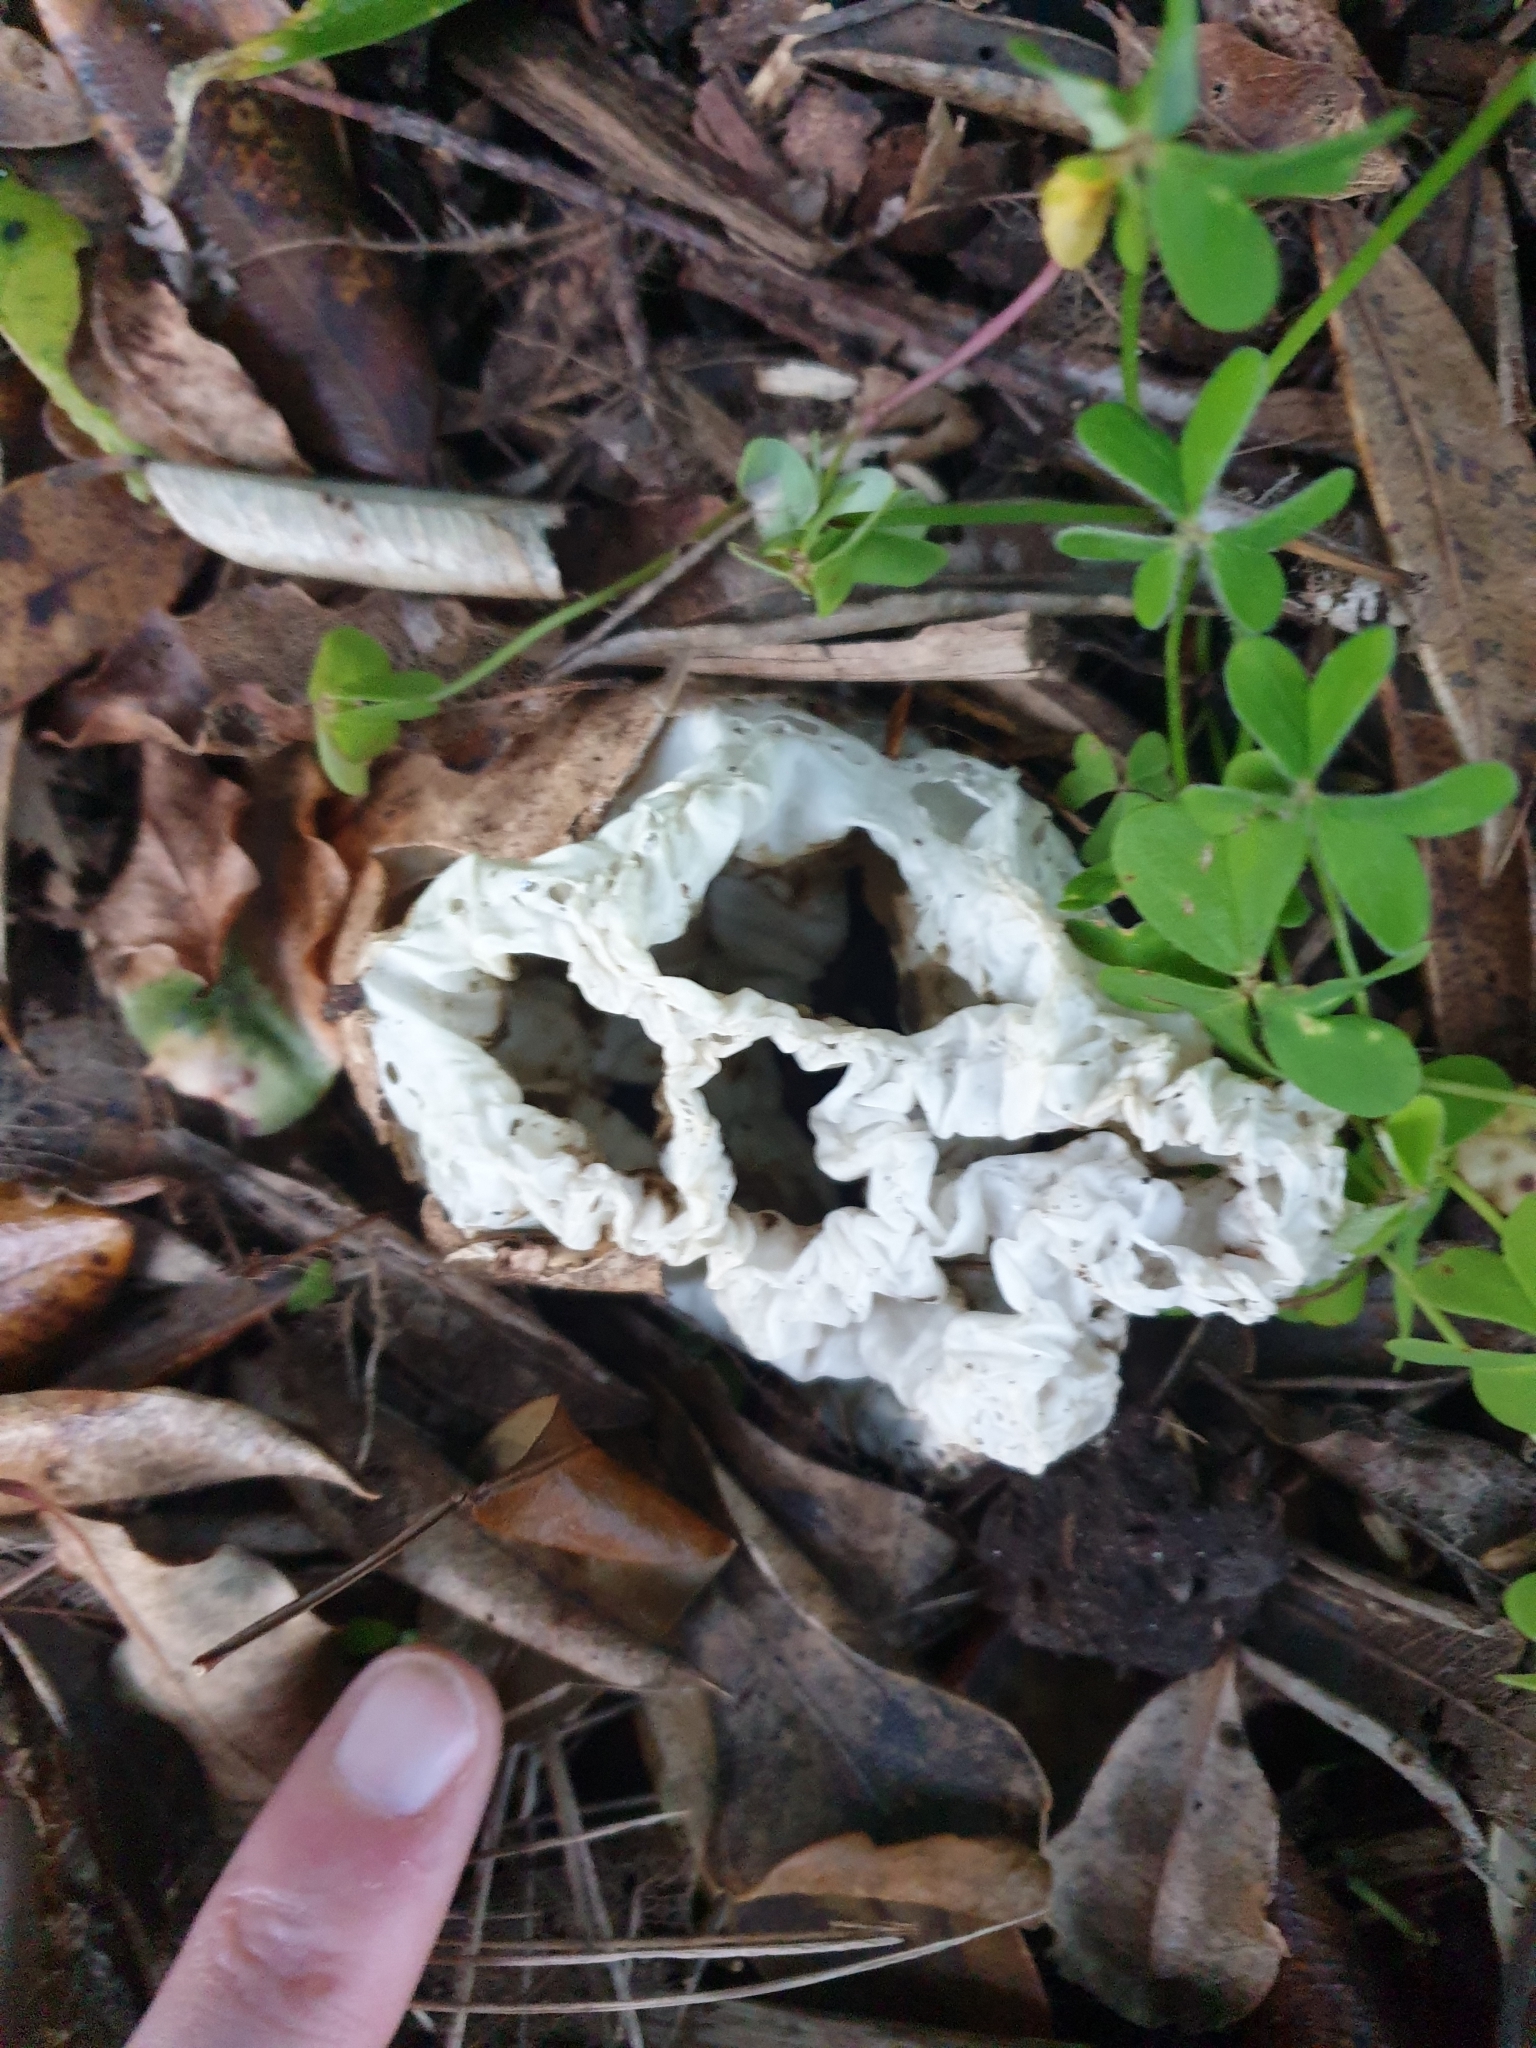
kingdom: Fungi
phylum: Basidiomycota
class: Agaricomycetes
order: Phallales
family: Phallaceae
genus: Ileodictyon
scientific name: Ileodictyon cibarium
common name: Basket fungus
